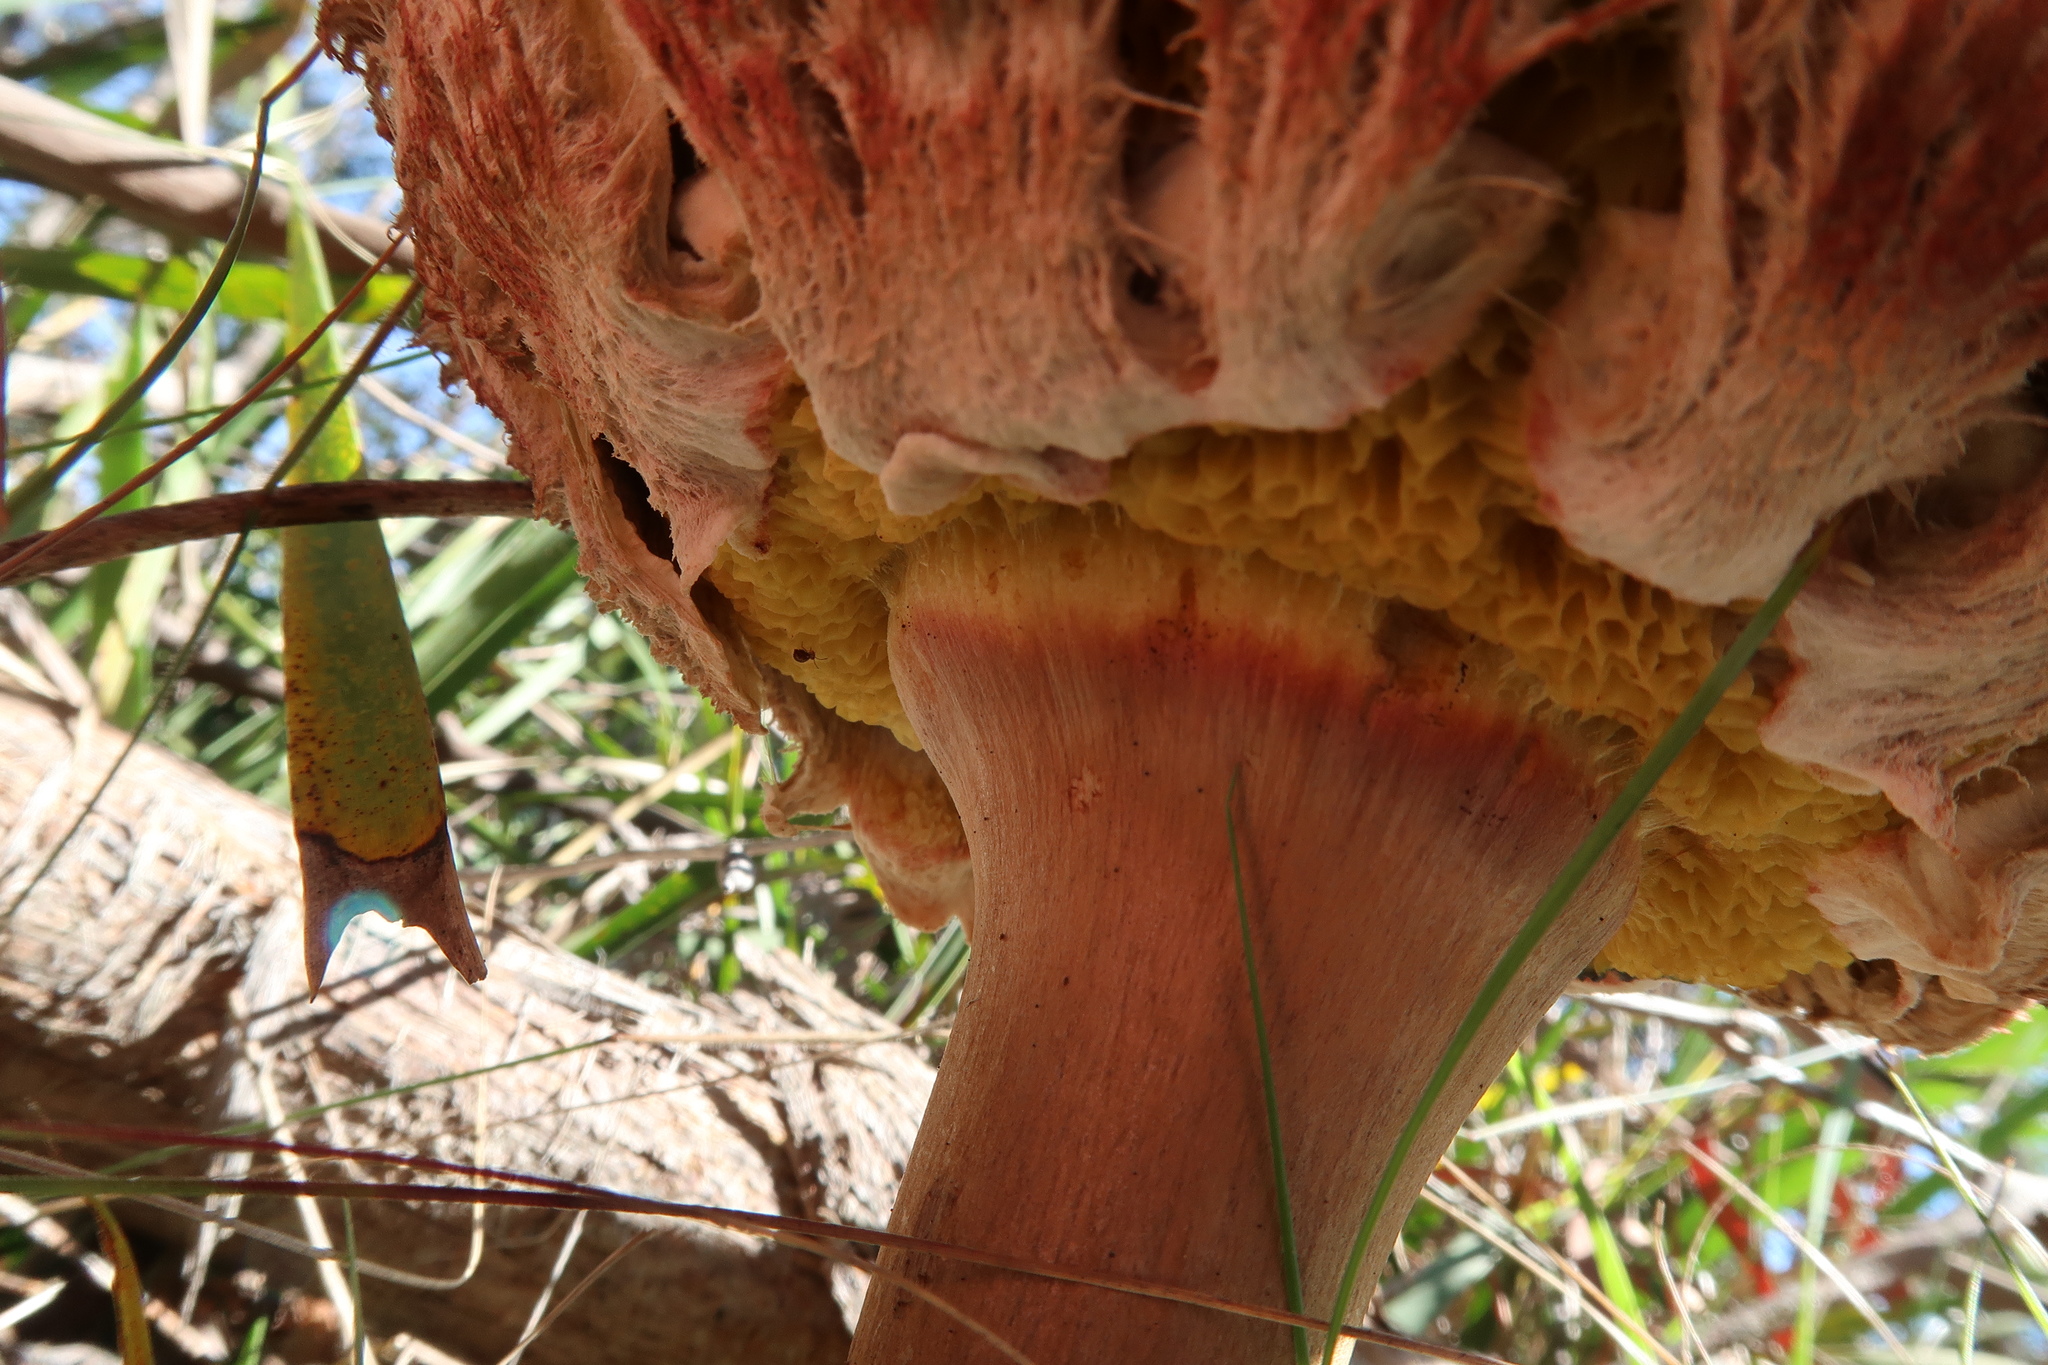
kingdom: Fungi
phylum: Basidiomycota
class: Agaricomycetes
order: Boletales
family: Boletaceae
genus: Boletellus
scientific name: Boletellus emodensis
